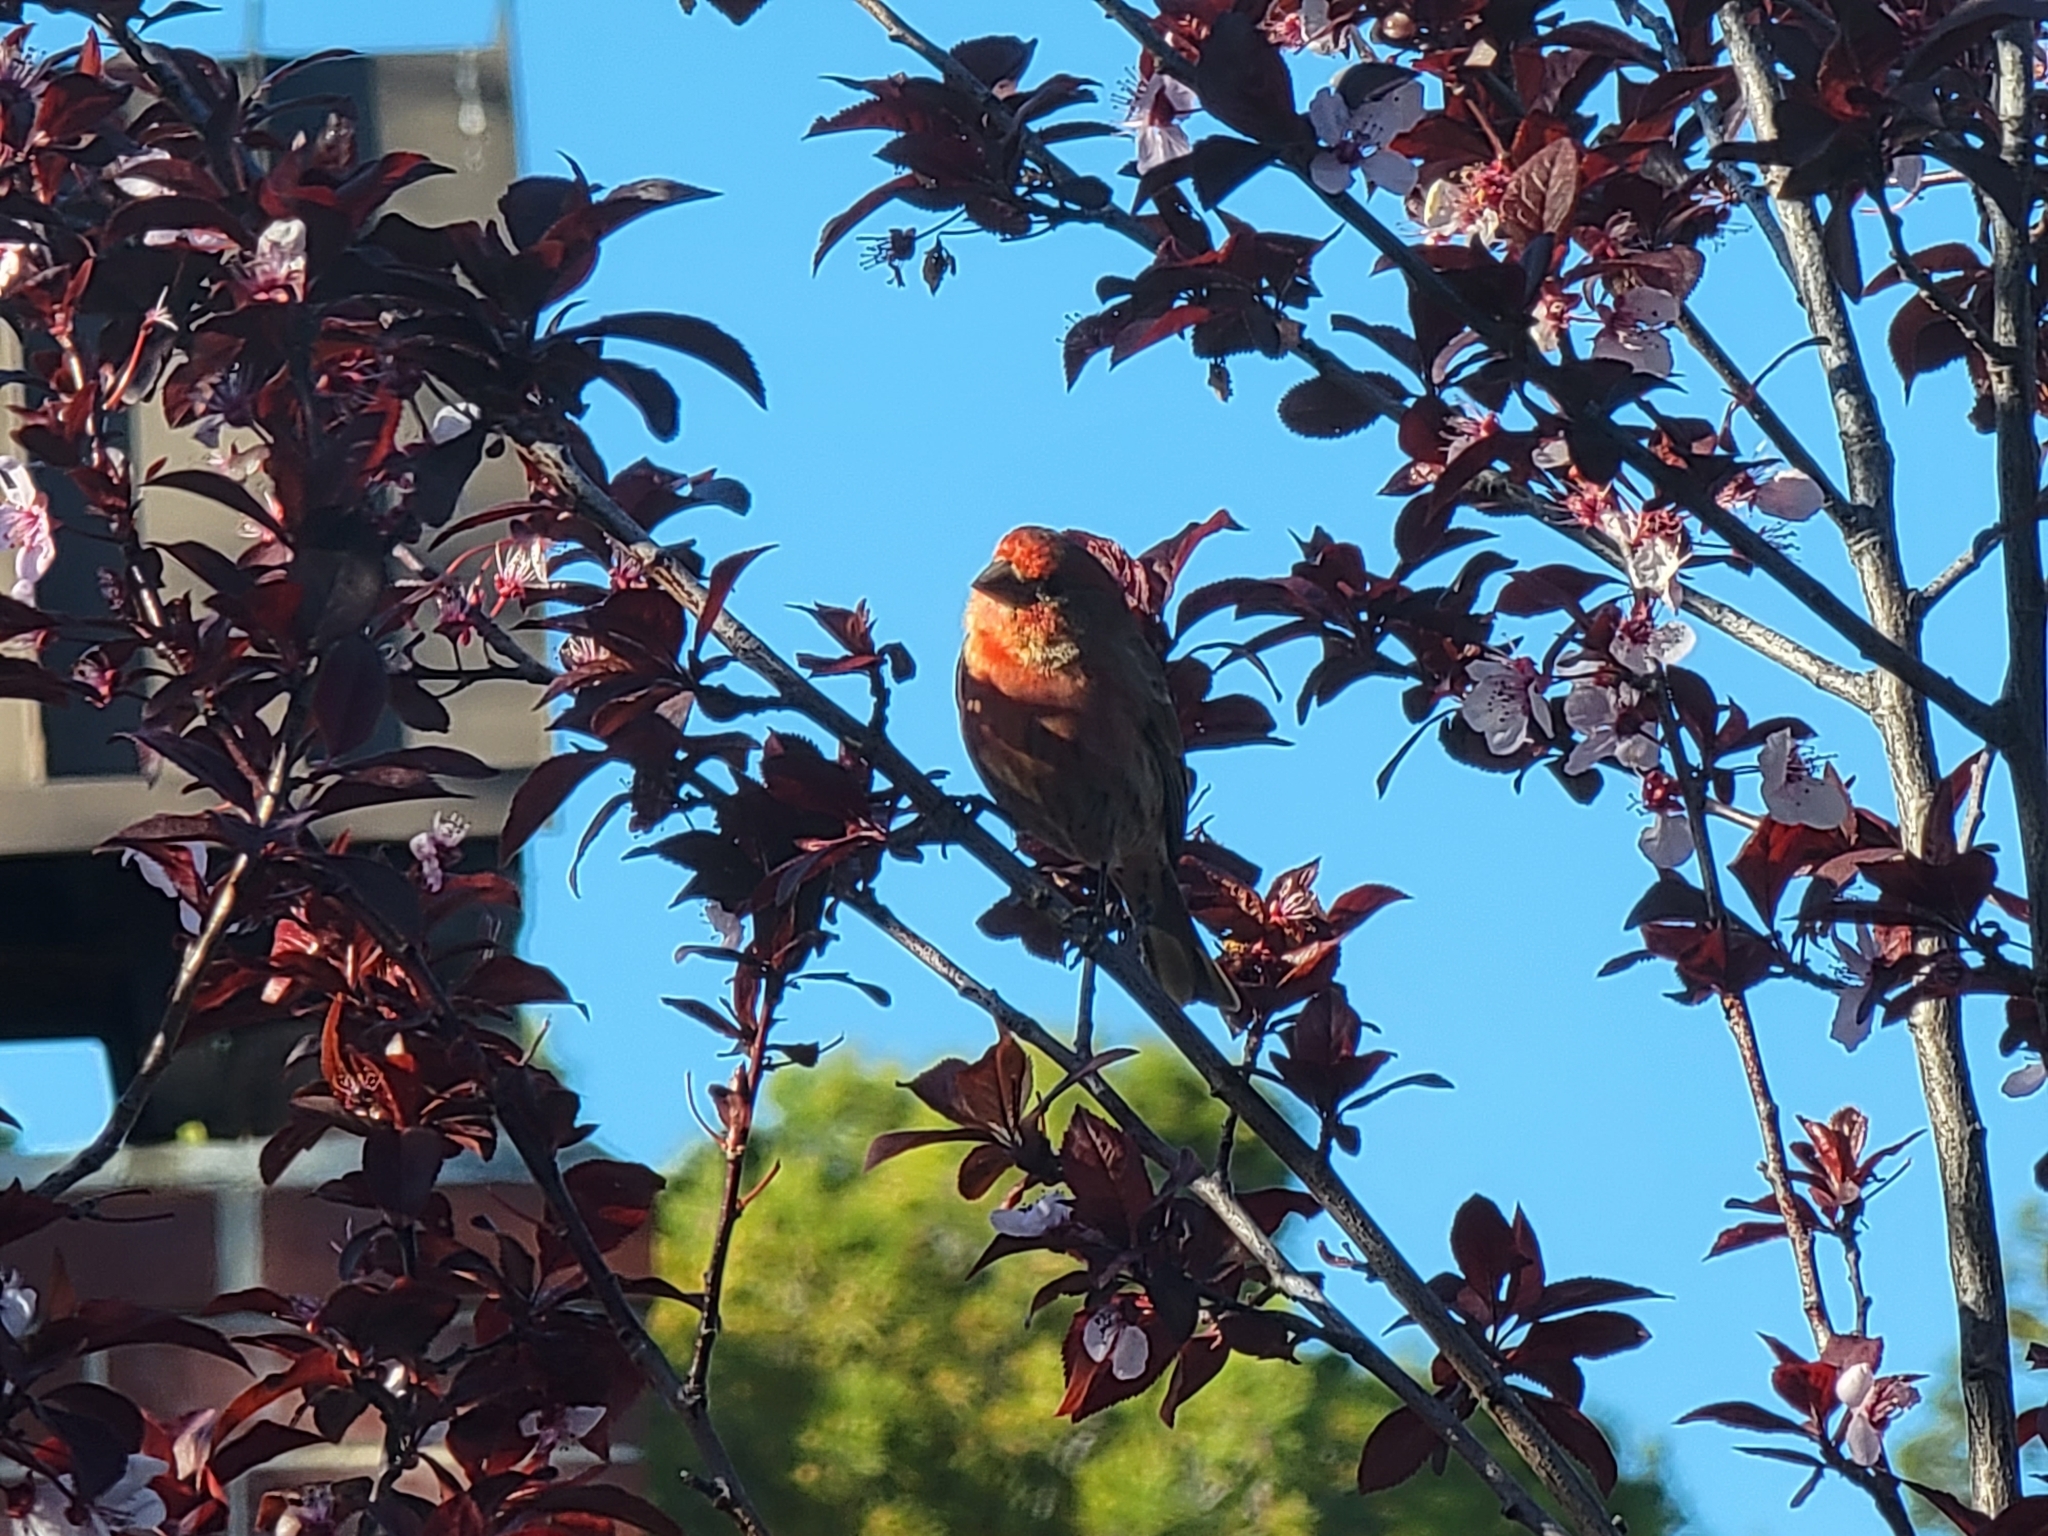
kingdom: Animalia
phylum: Chordata
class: Aves
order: Passeriformes
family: Fringillidae
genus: Haemorhous
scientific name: Haemorhous mexicanus
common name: House finch
